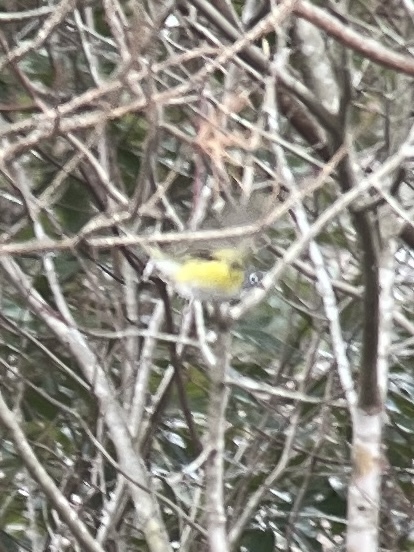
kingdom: Animalia
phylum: Chordata
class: Aves
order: Passeriformes
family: Vireonidae
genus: Vireo
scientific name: Vireo solitarius
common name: Blue-headed vireo
